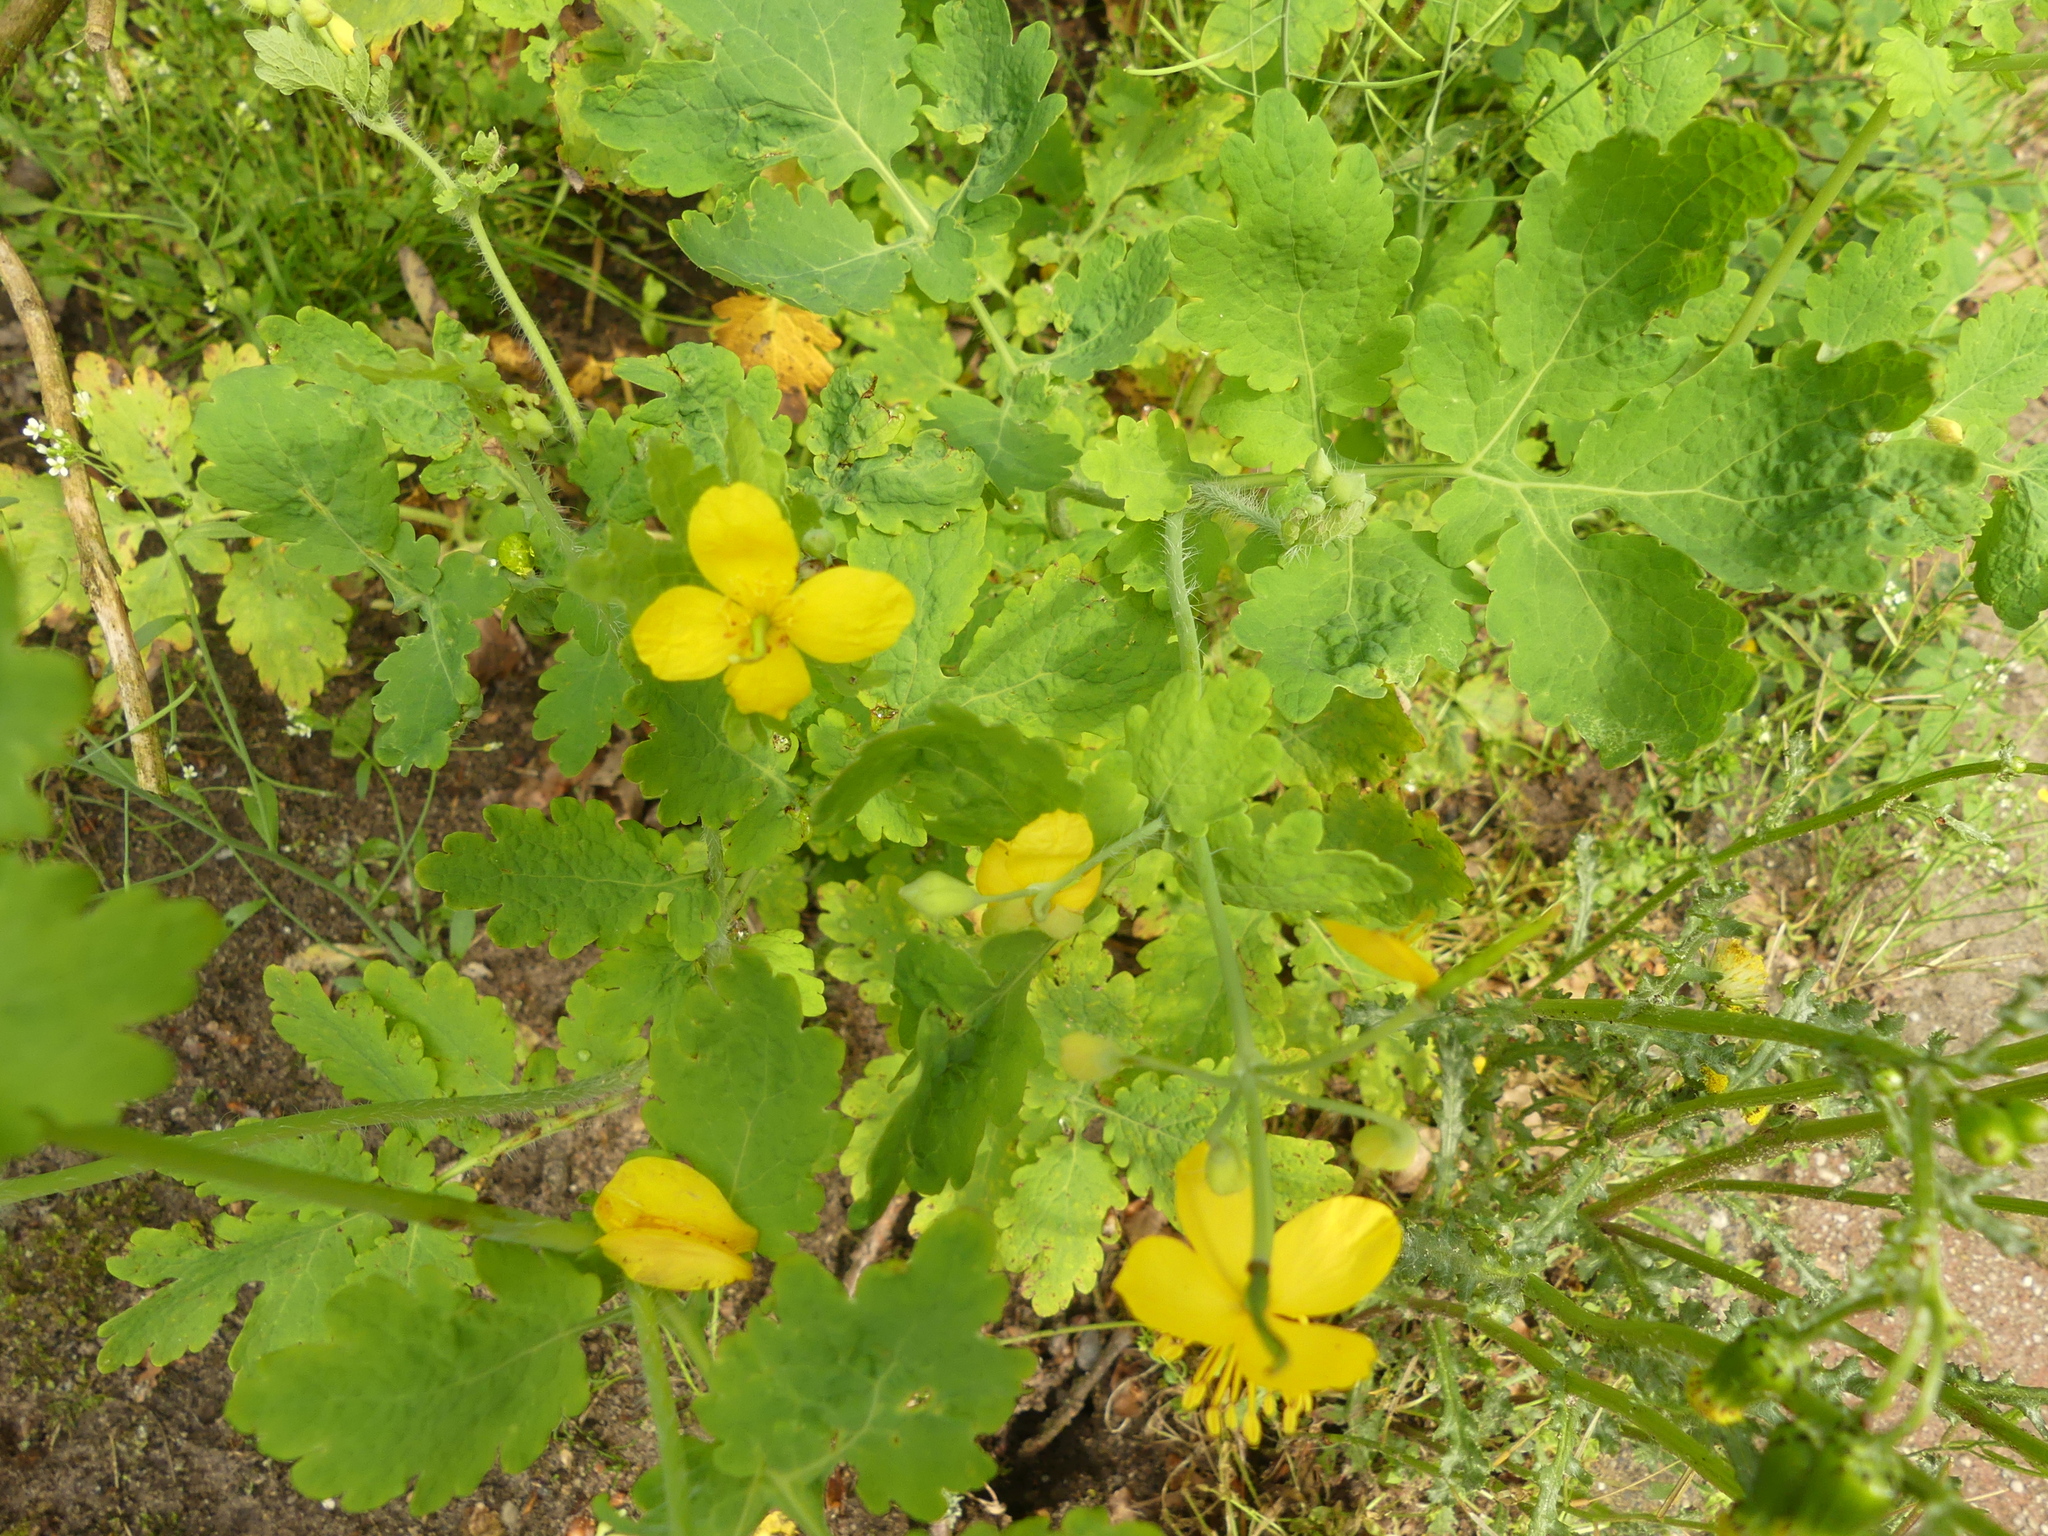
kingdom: Plantae
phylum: Tracheophyta
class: Magnoliopsida
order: Ranunculales
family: Papaveraceae
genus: Chelidonium
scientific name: Chelidonium majus
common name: Greater celandine
